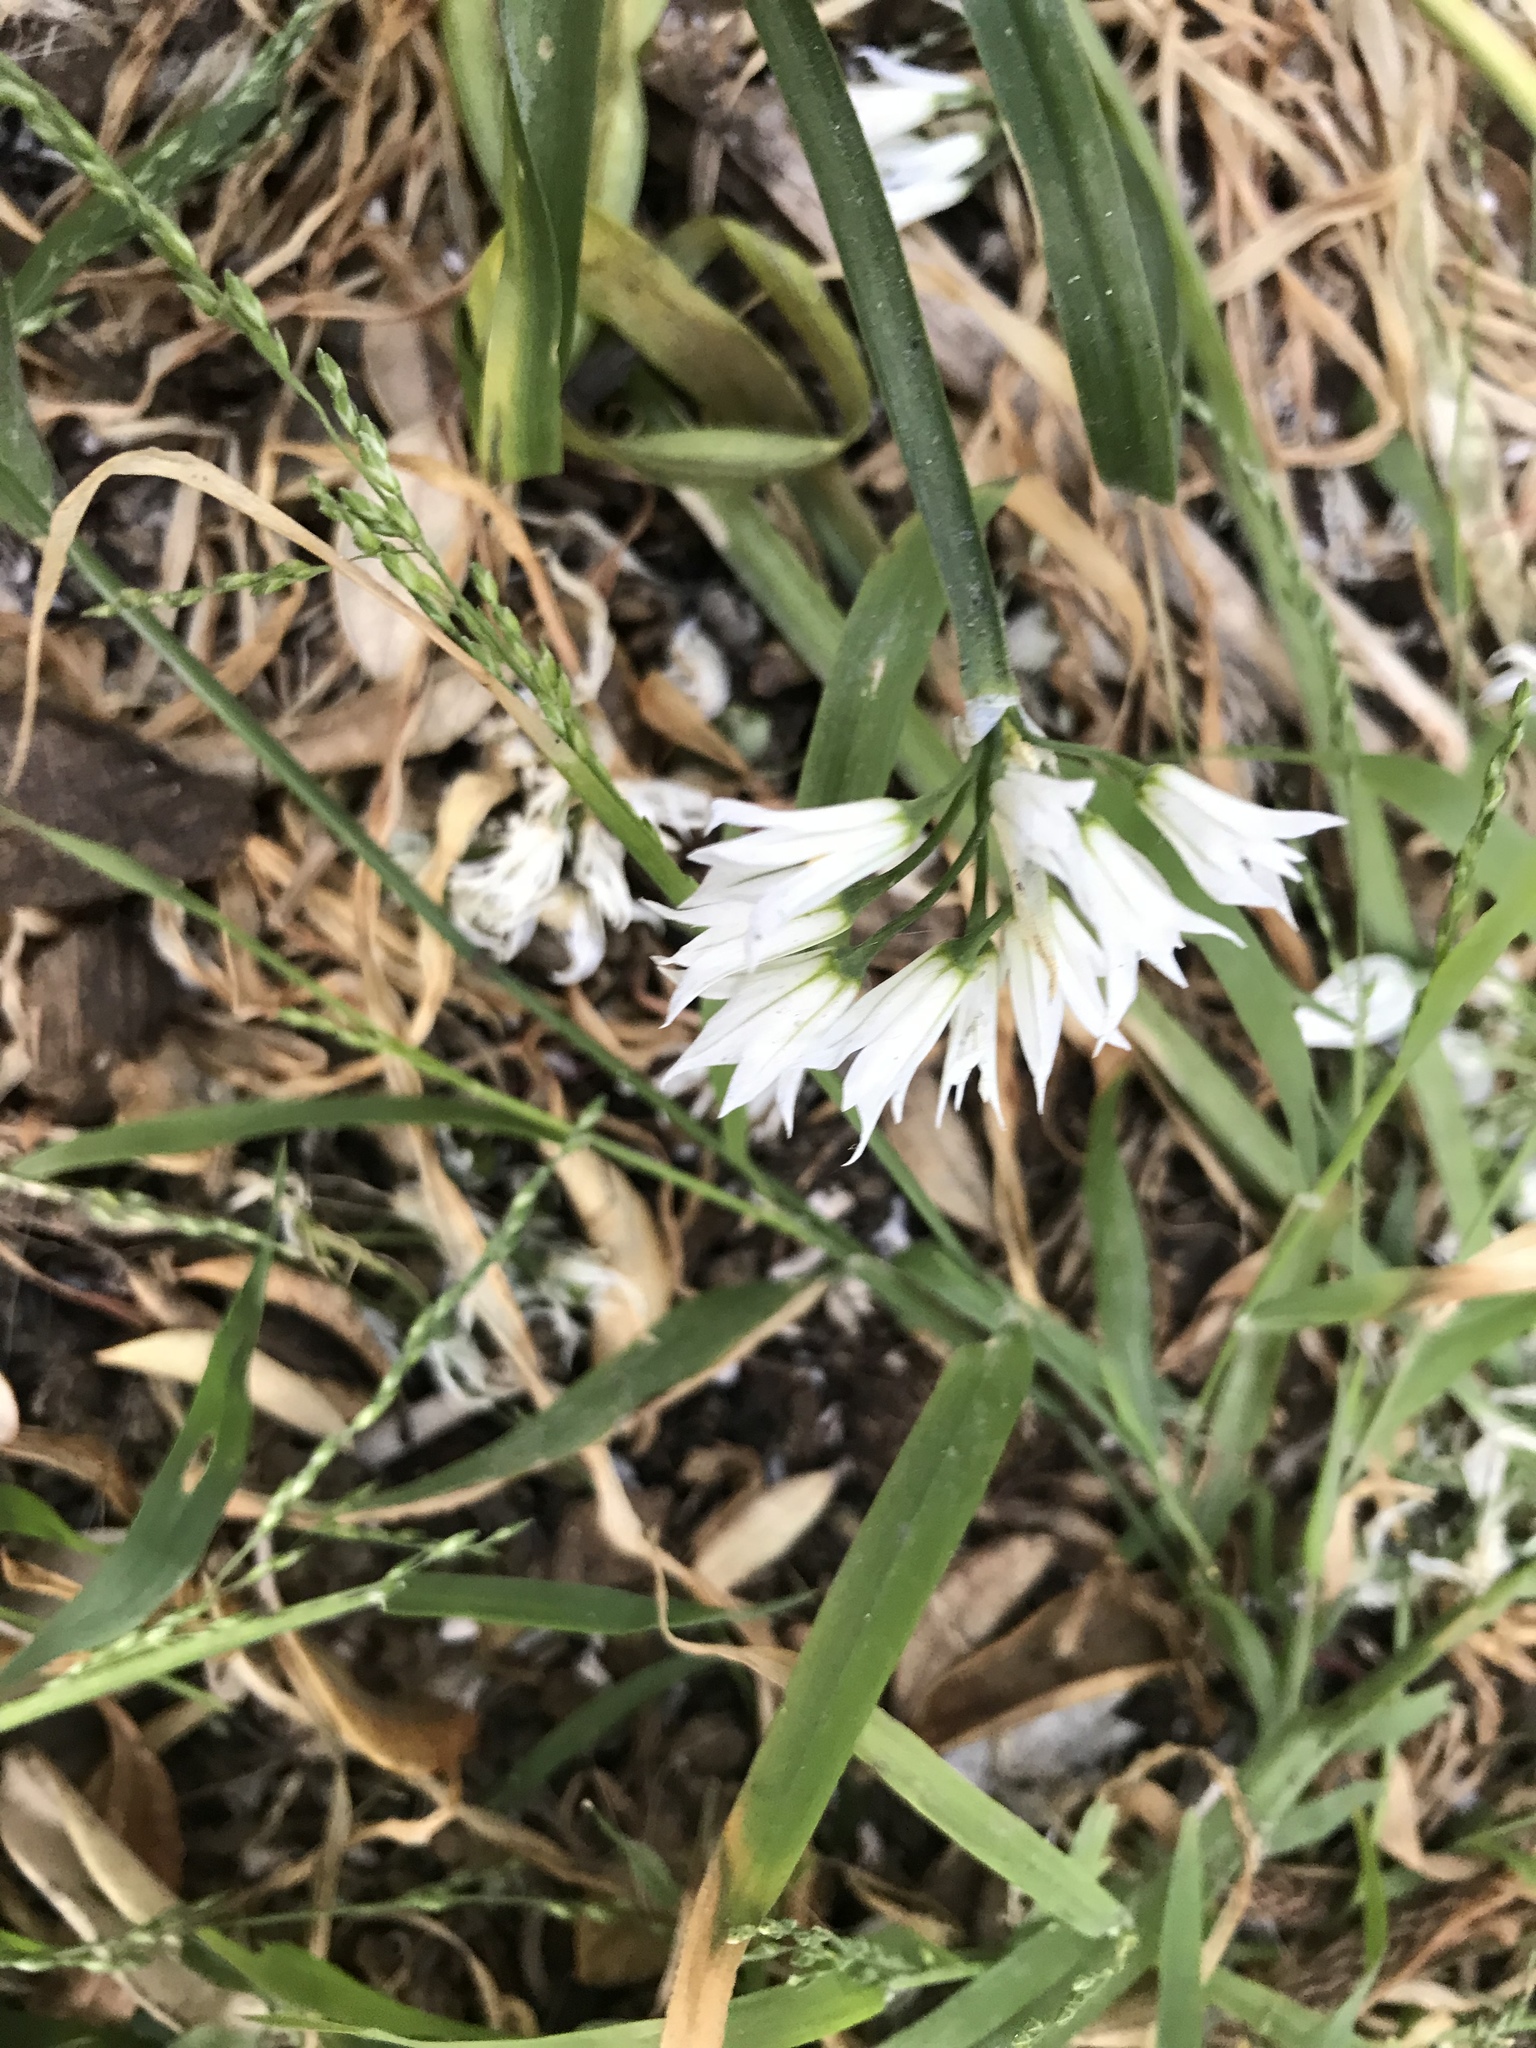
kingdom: Plantae
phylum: Tracheophyta
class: Liliopsida
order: Asparagales
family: Amaryllidaceae
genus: Allium
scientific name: Allium triquetrum
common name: Three-cornered garlic
